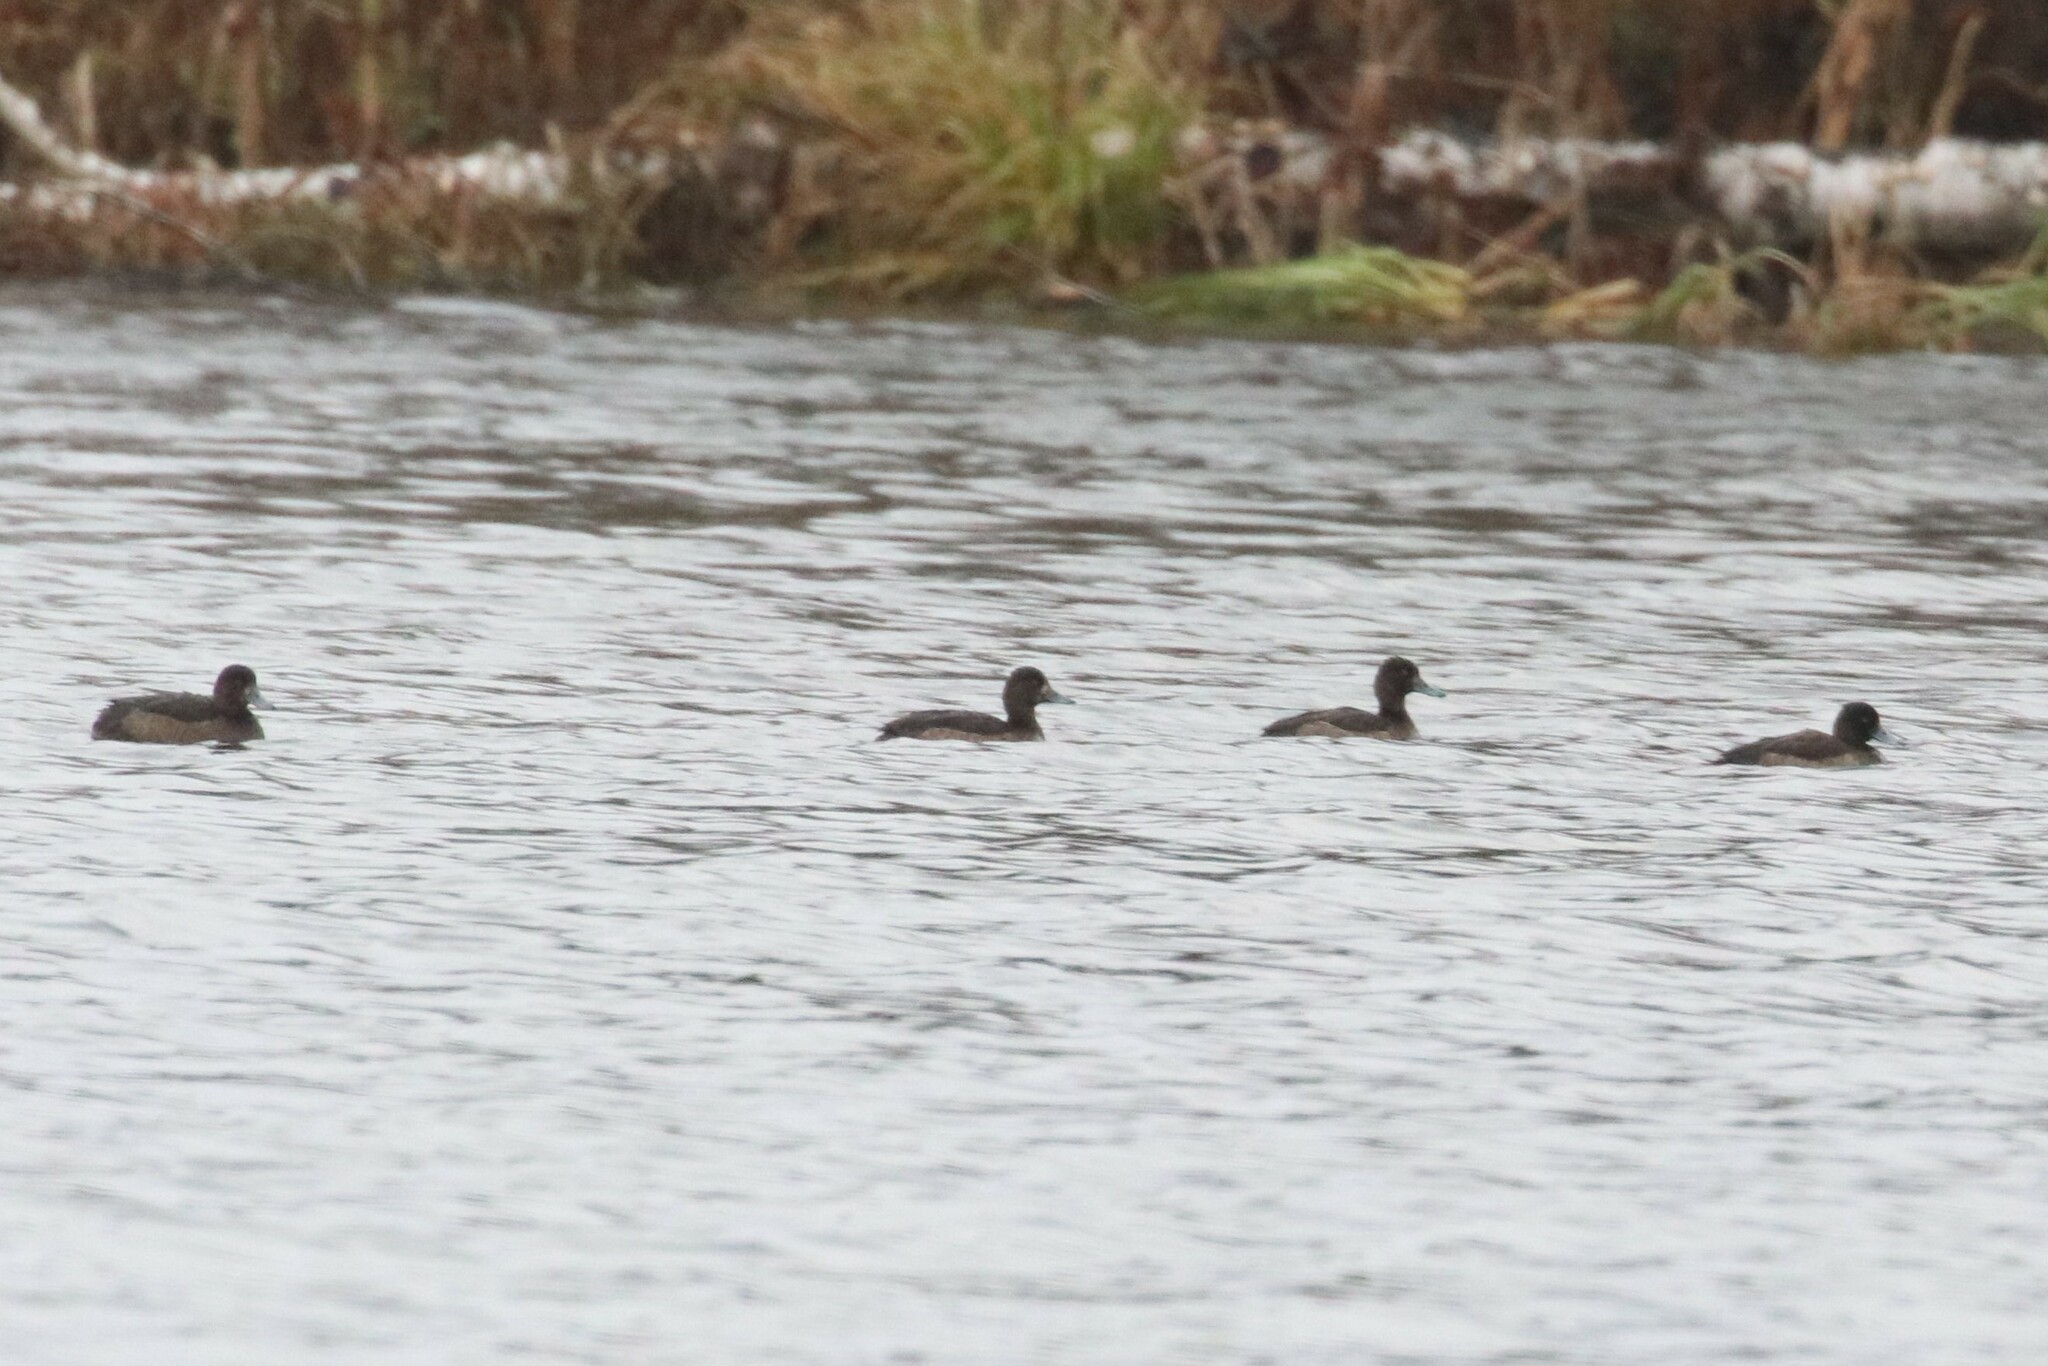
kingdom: Animalia
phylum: Chordata
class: Aves
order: Anseriformes
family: Anatidae
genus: Aythya
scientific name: Aythya fuligula
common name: Tufted duck
